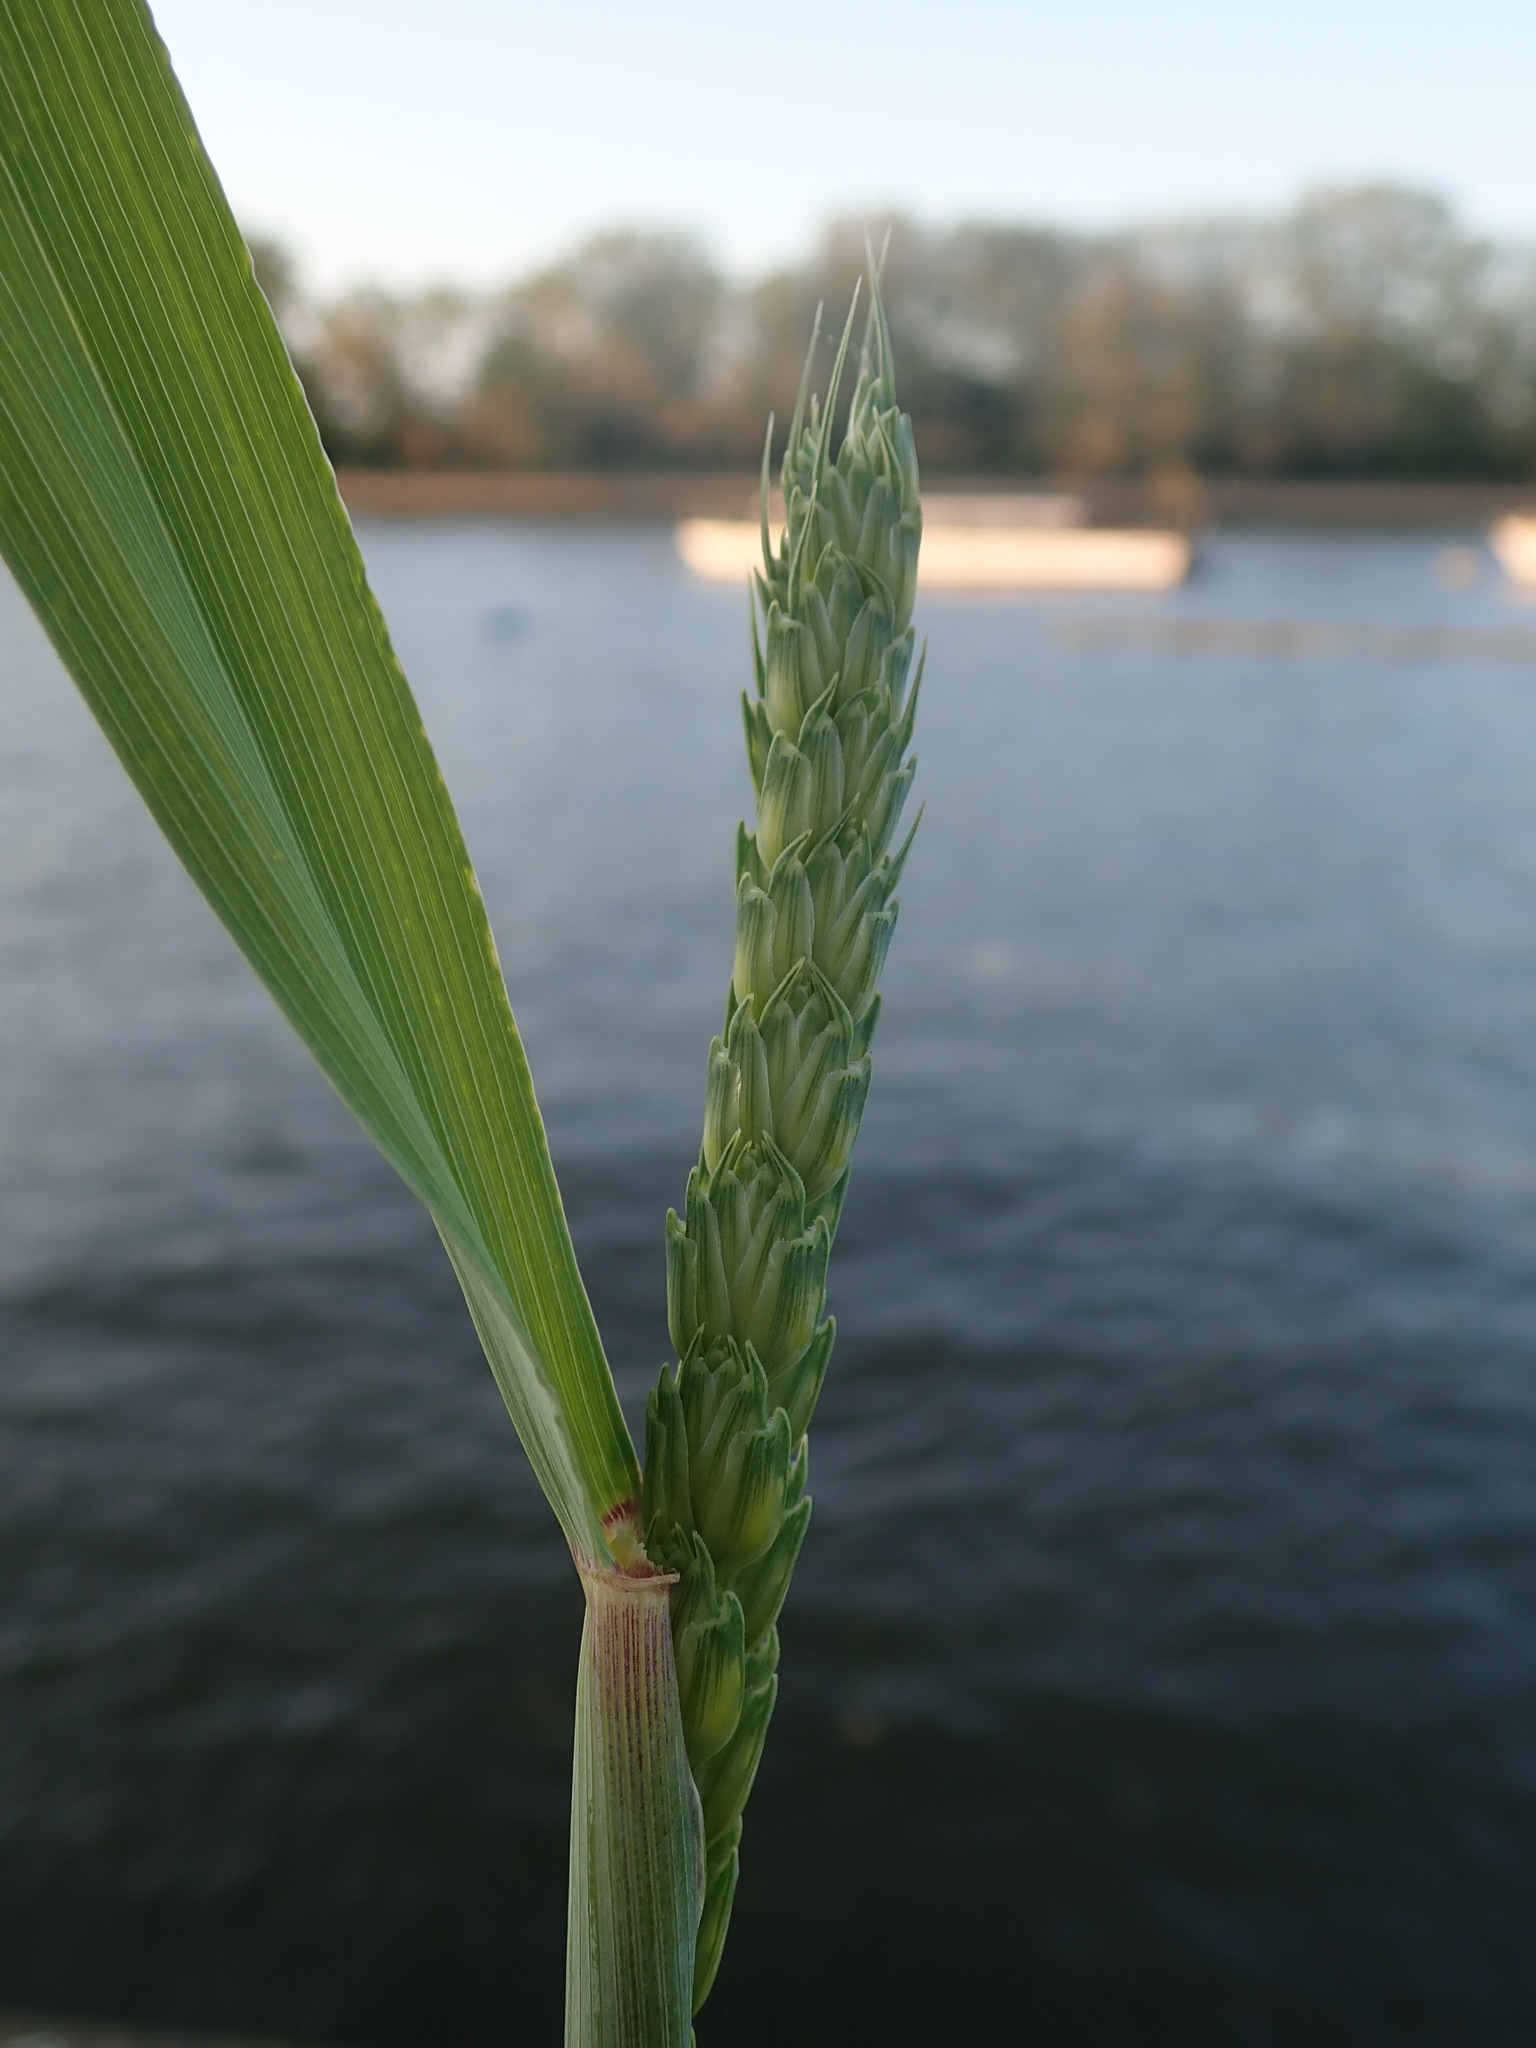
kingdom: Plantae
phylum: Tracheophyta
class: Liliopsida
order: Poales
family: Poaceae
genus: Triticum
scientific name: Triticum aestivum
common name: Common wheat
